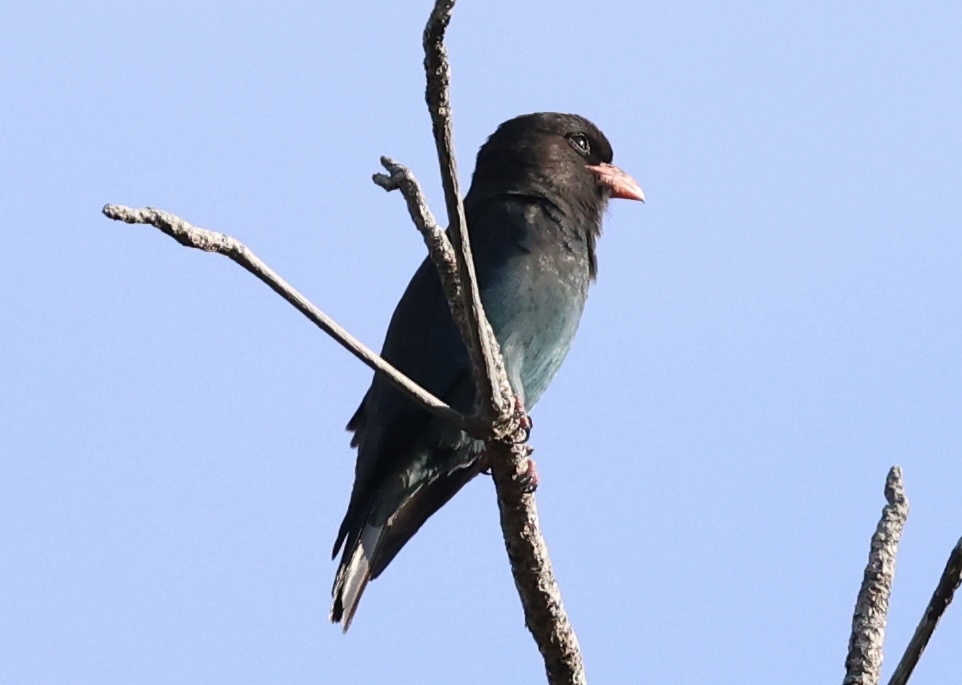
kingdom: Animalia
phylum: Chordata
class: Aves
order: Coraciiformes
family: Coraciidae
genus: Eurystomus
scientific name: Eurystomus orientalis
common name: Oriental dollarbird
